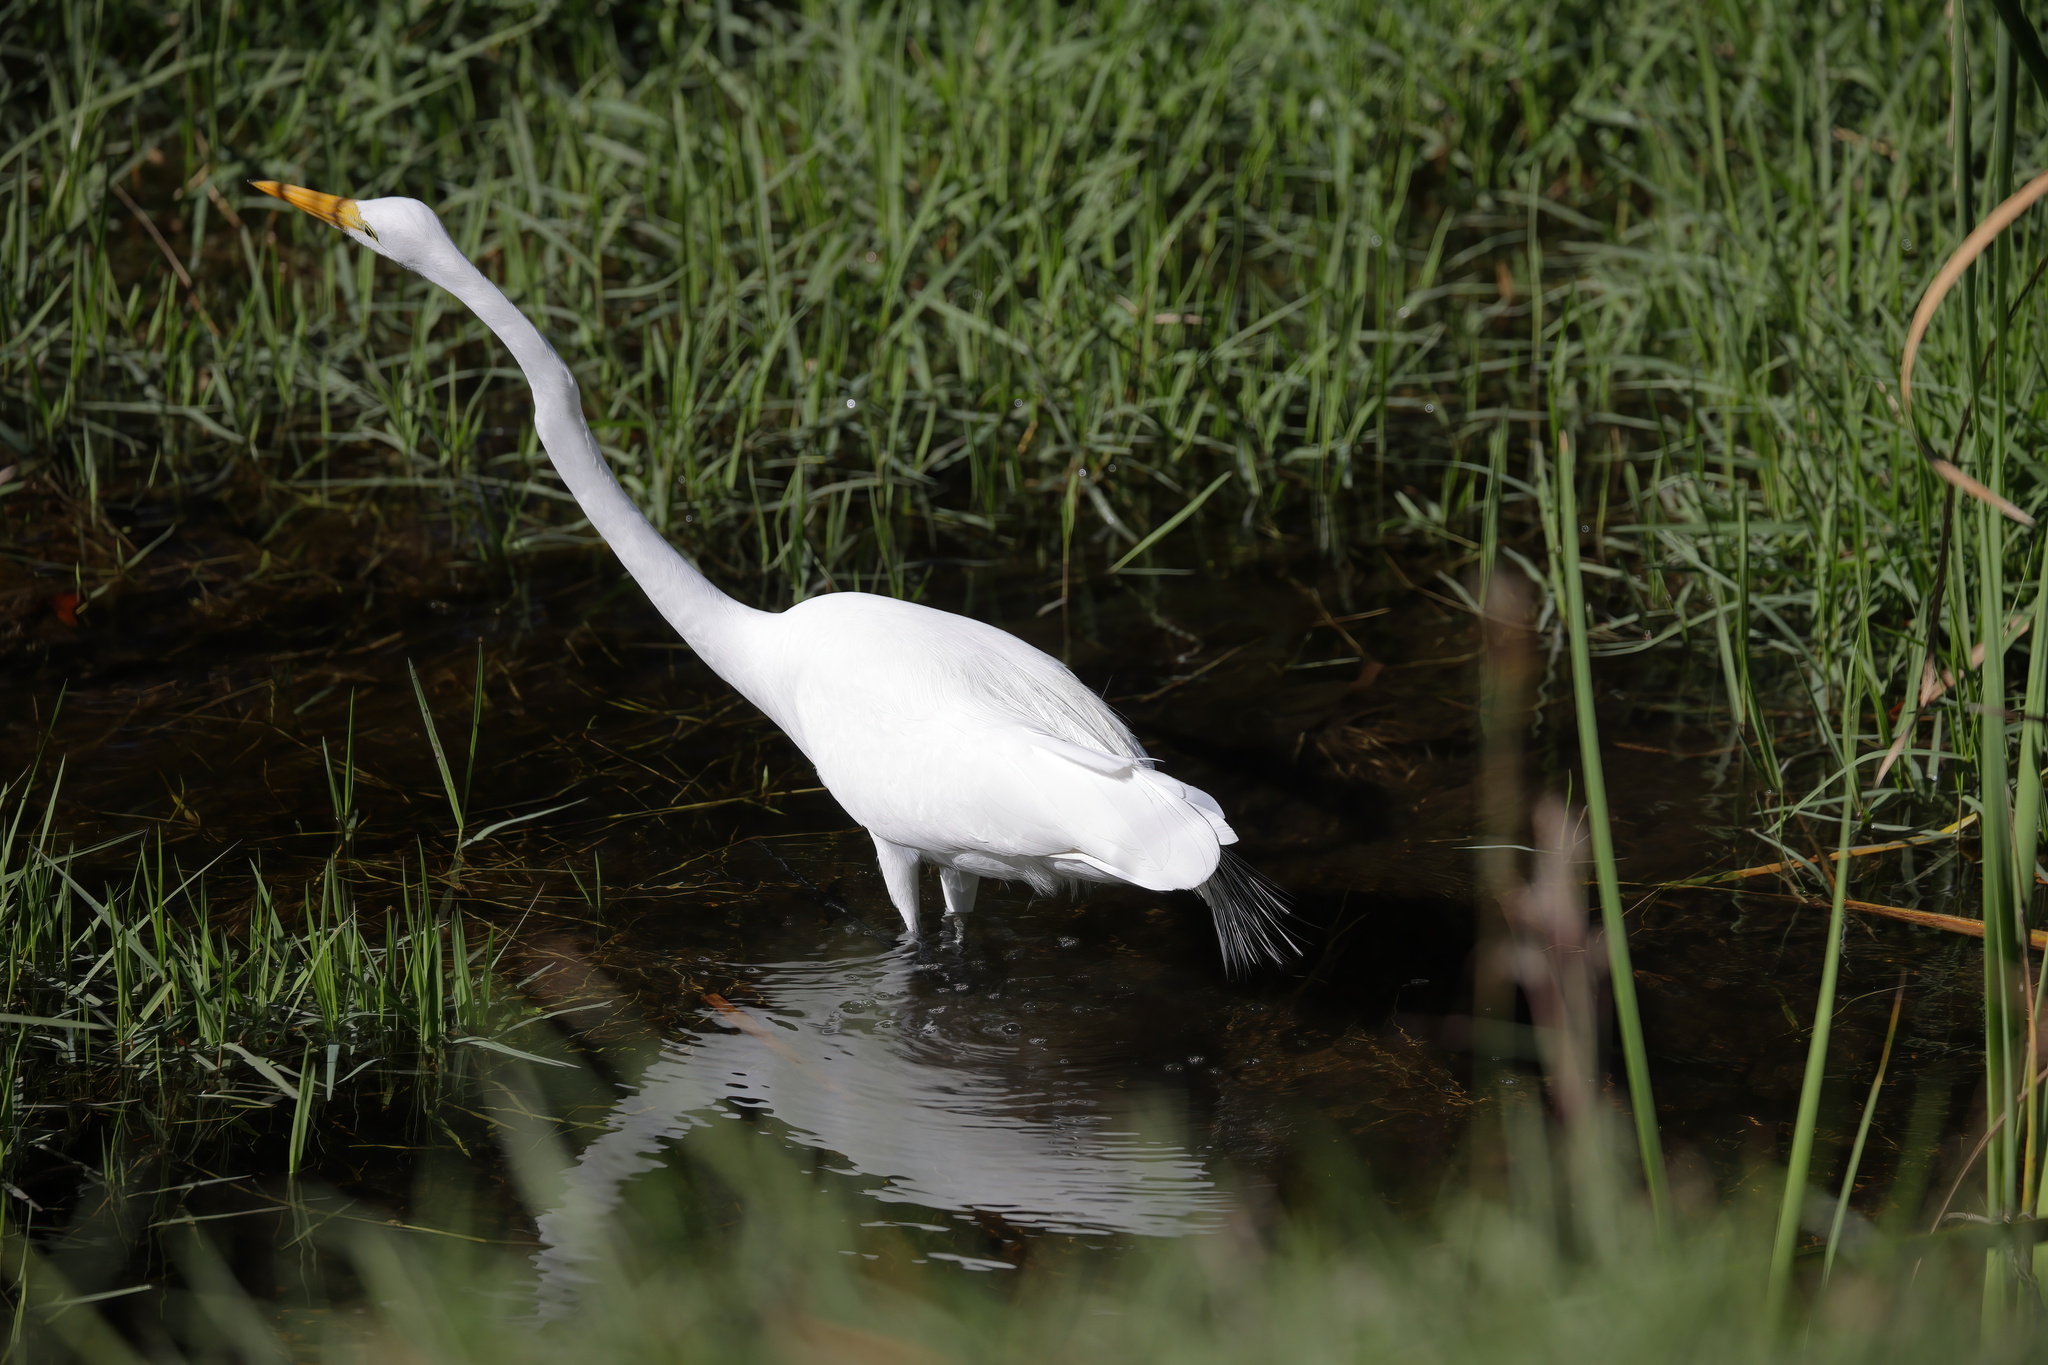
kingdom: Animalia
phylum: Chordata
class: Aves
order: Pelecaniformes
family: Ardeidae
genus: Ardea
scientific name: Ardea alba
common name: Great egret
